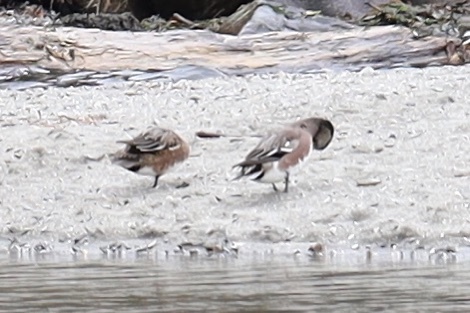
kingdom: Animalia
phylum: Chordata
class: Aves
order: Anseriformes
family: Anatidae
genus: Mareca
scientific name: Mareca americana
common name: American wigeon
